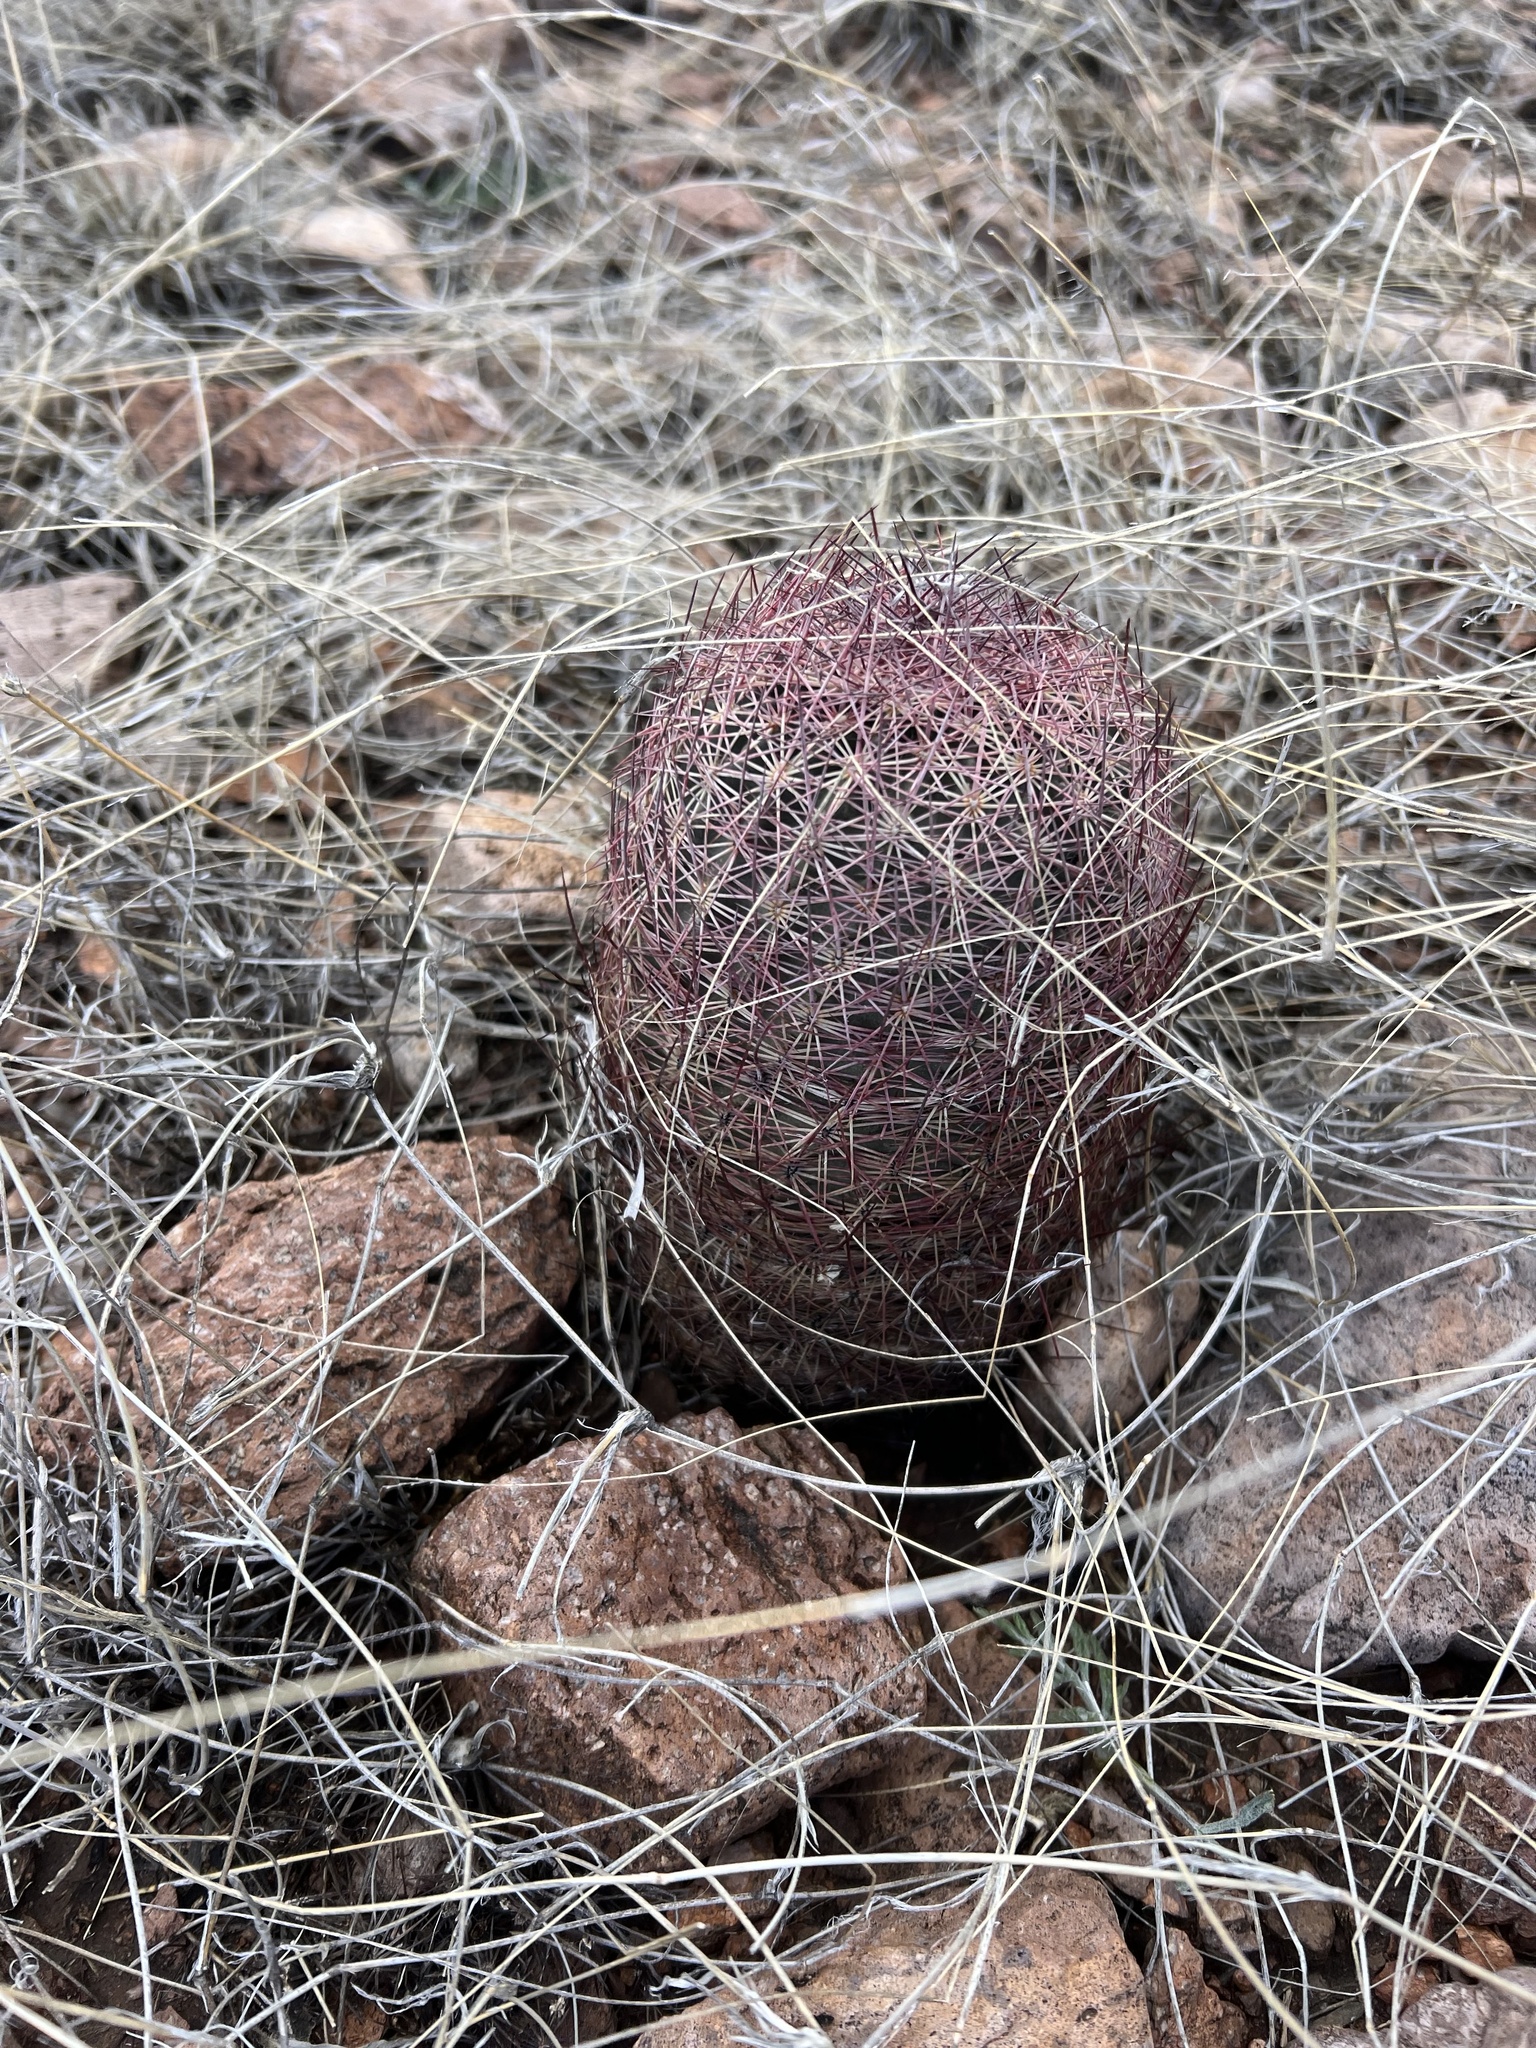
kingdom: Plantae
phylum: Tracheophyta
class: Magnoliopsida
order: Caryophyllales
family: Cactaceae
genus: Sclerocactus
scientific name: Sclerocactus johnsonii
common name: Eight-spine fishhook cactus
